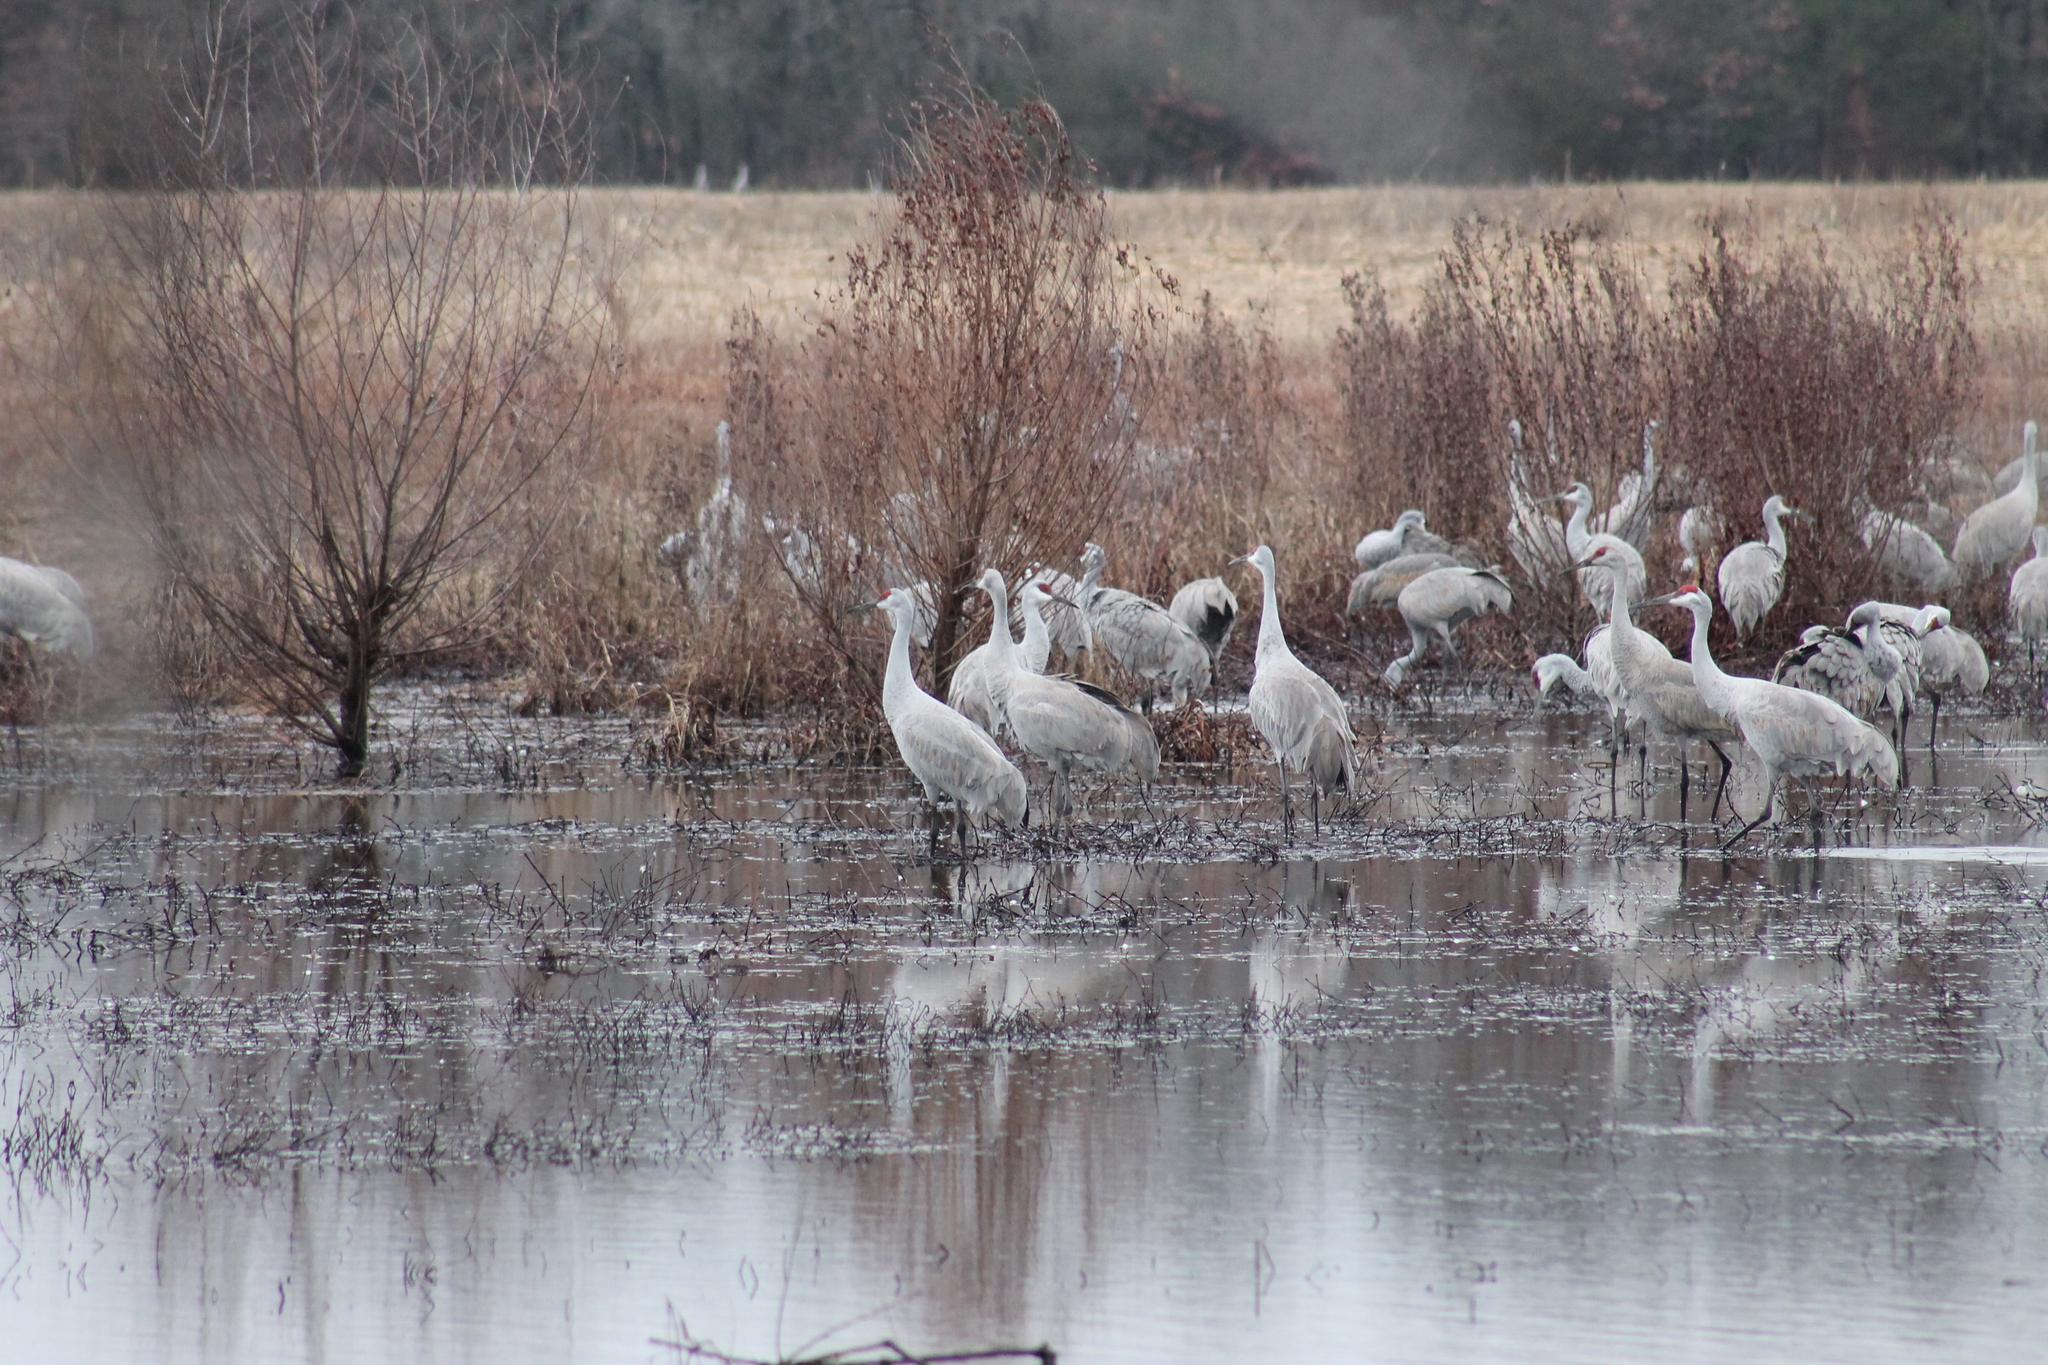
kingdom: Animalia
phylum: Chordata
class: Aves
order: Gruiformes
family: Gruidae
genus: Grus
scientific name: Grus canadensis
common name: Sandhill crane
